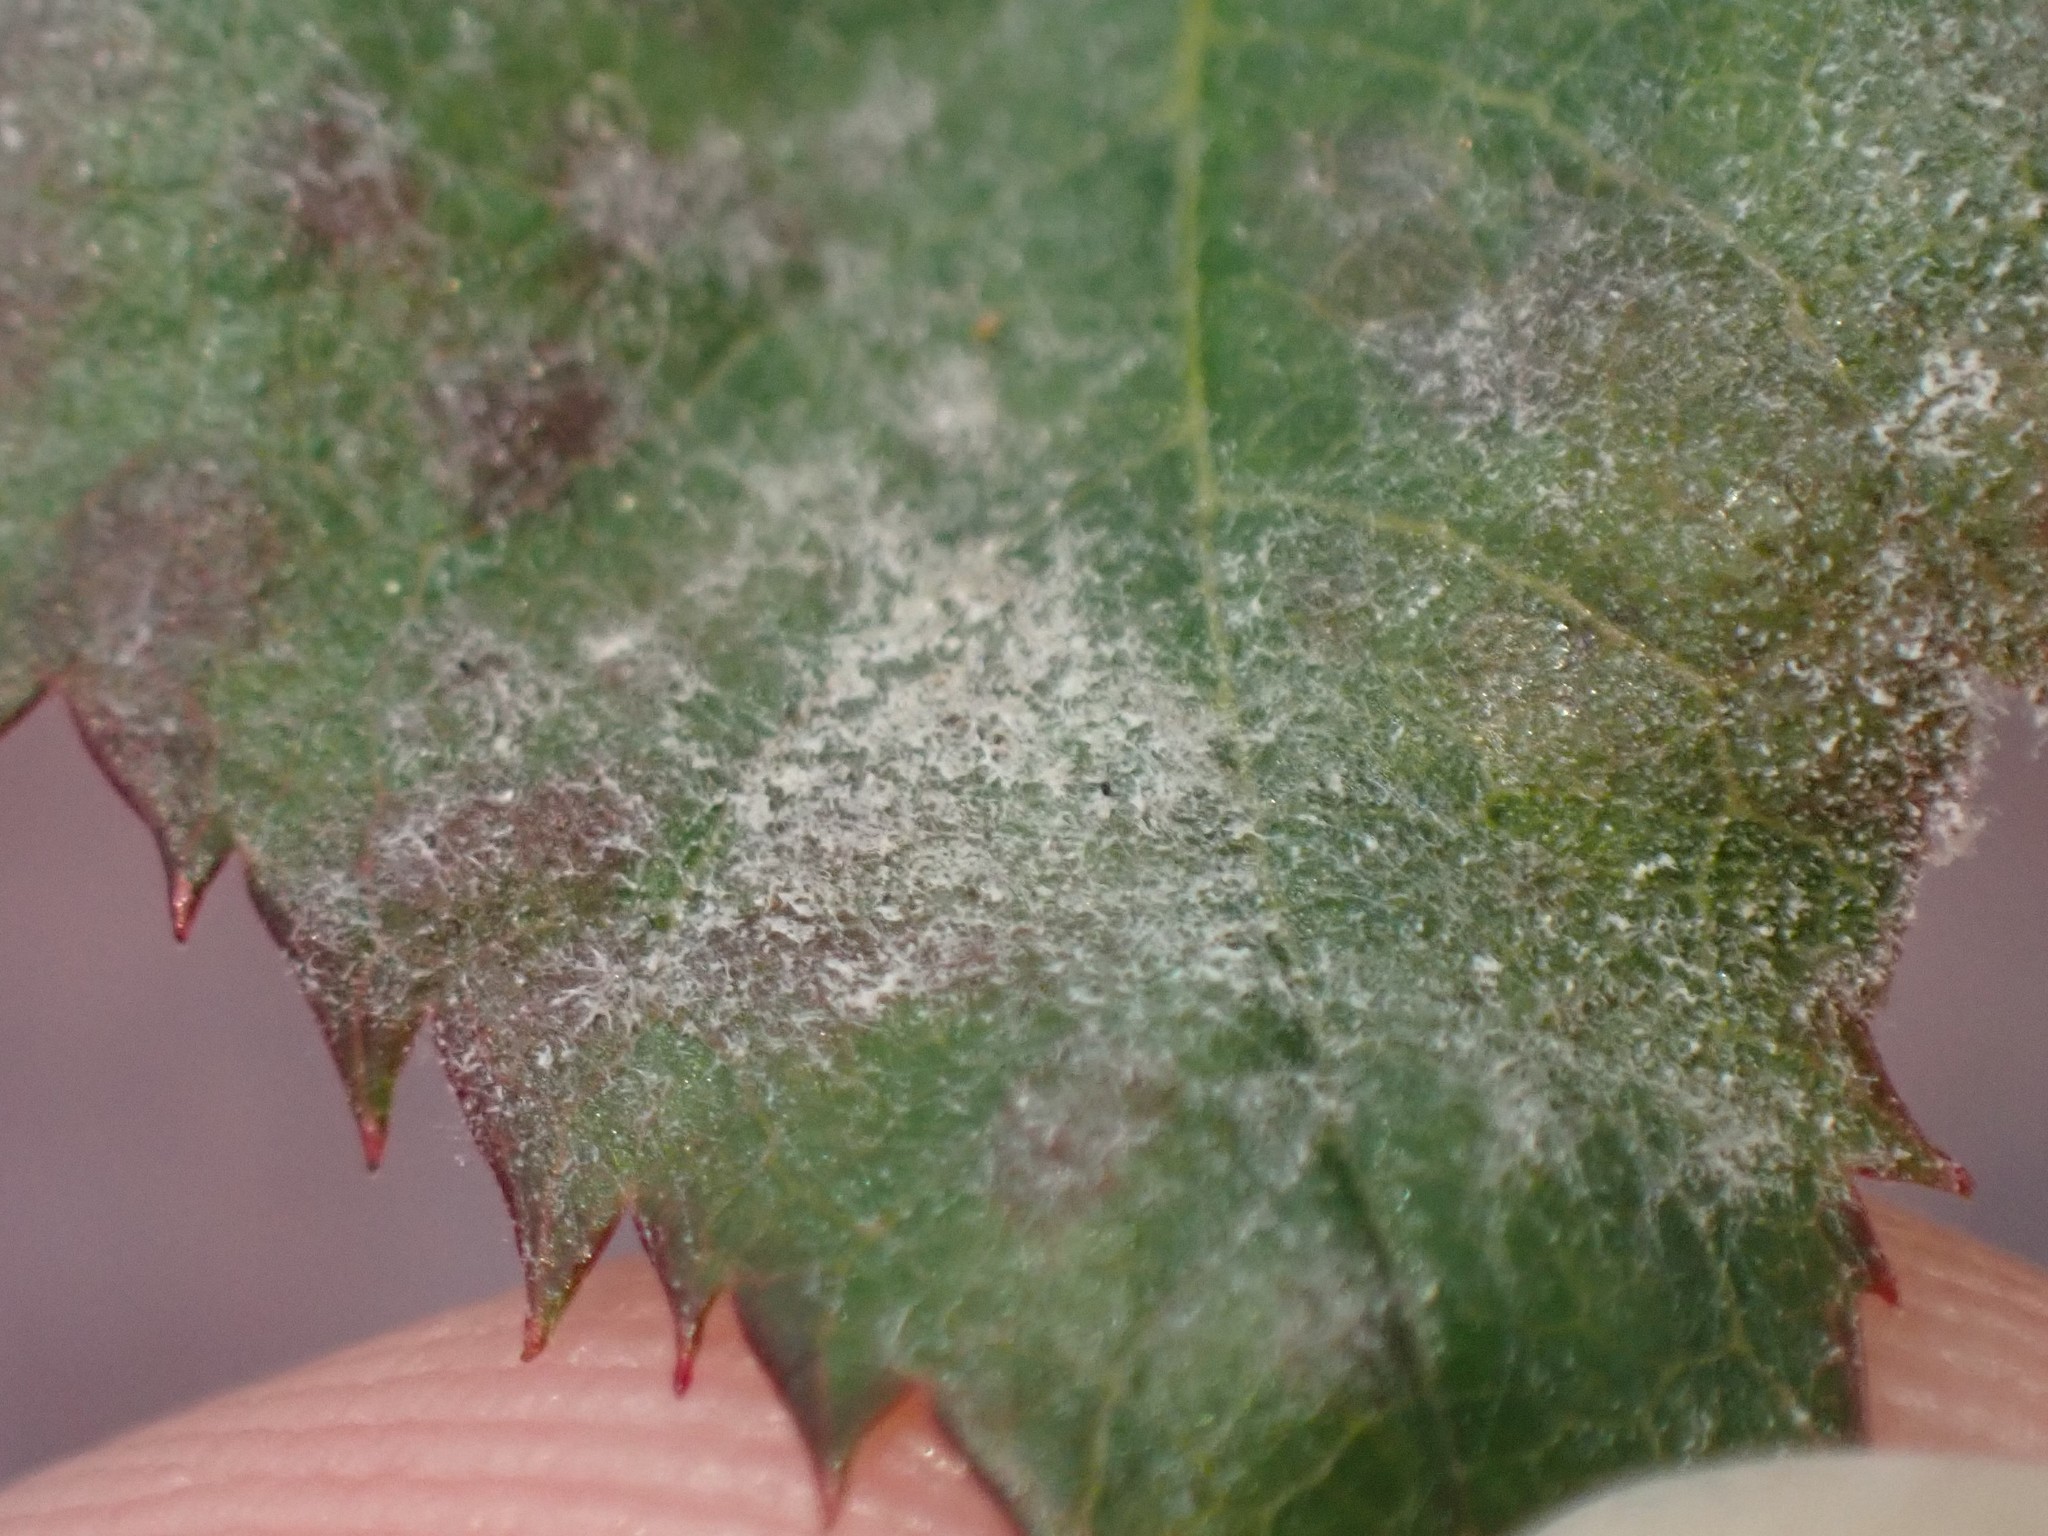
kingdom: Fungi
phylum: Ascomycota
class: Leotiomycetes
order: Helotiales
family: Erysiphaceae
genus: Podosphaera
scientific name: Podosphaera pannosa
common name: Rose mildew
